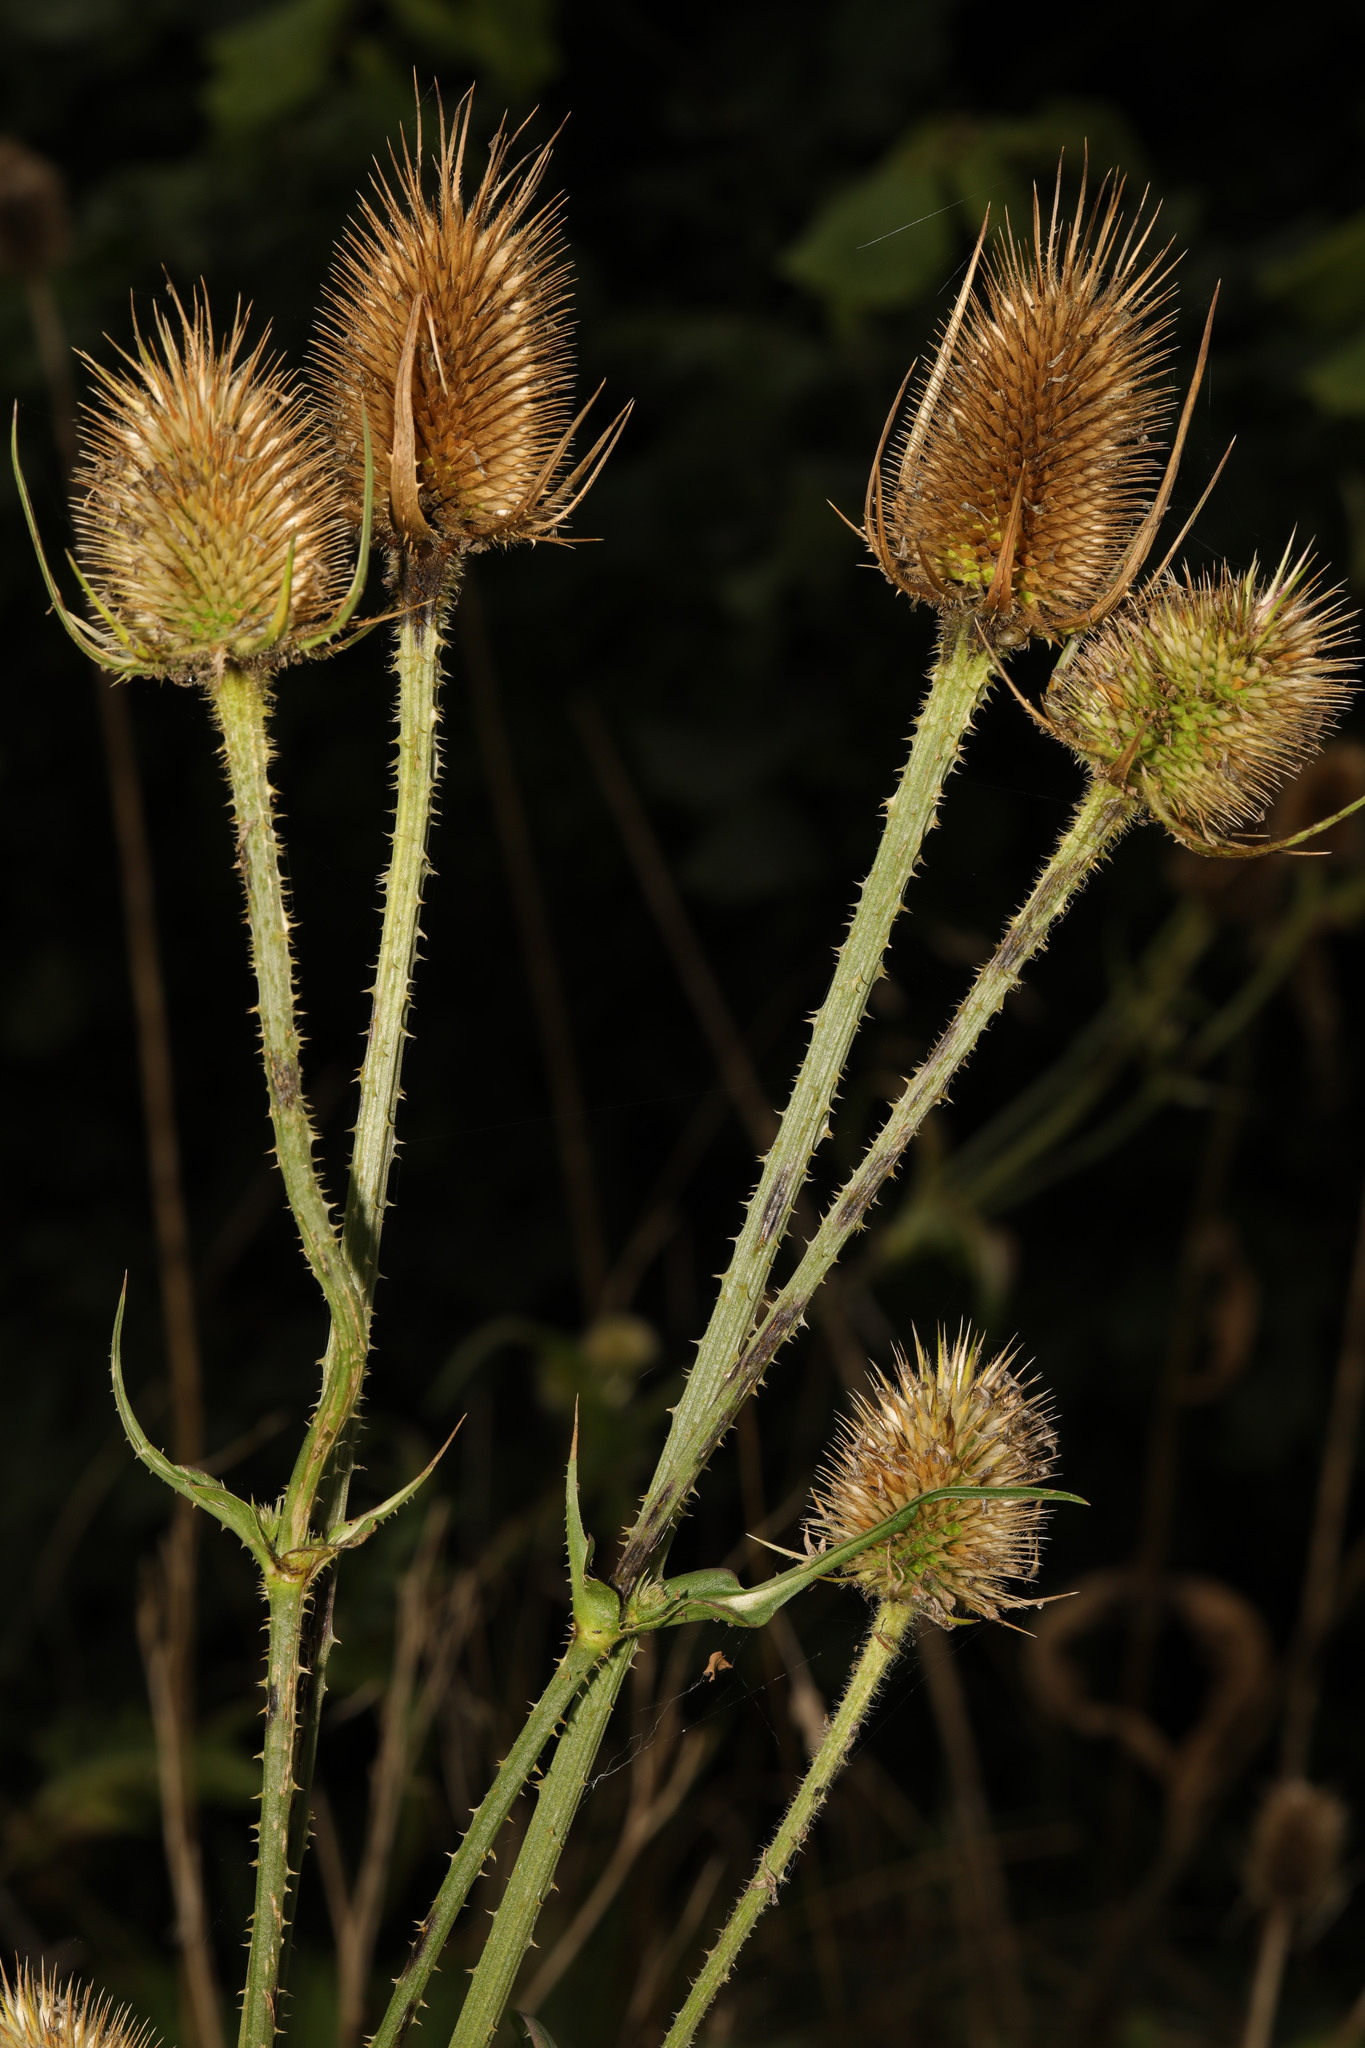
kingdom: Plantae
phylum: Tracheophyta
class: Magnoliopsida
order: Dipsacales
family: Caprifoliaceae
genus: Dipsacus
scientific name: Dipsacus fullonum
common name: Teasel
